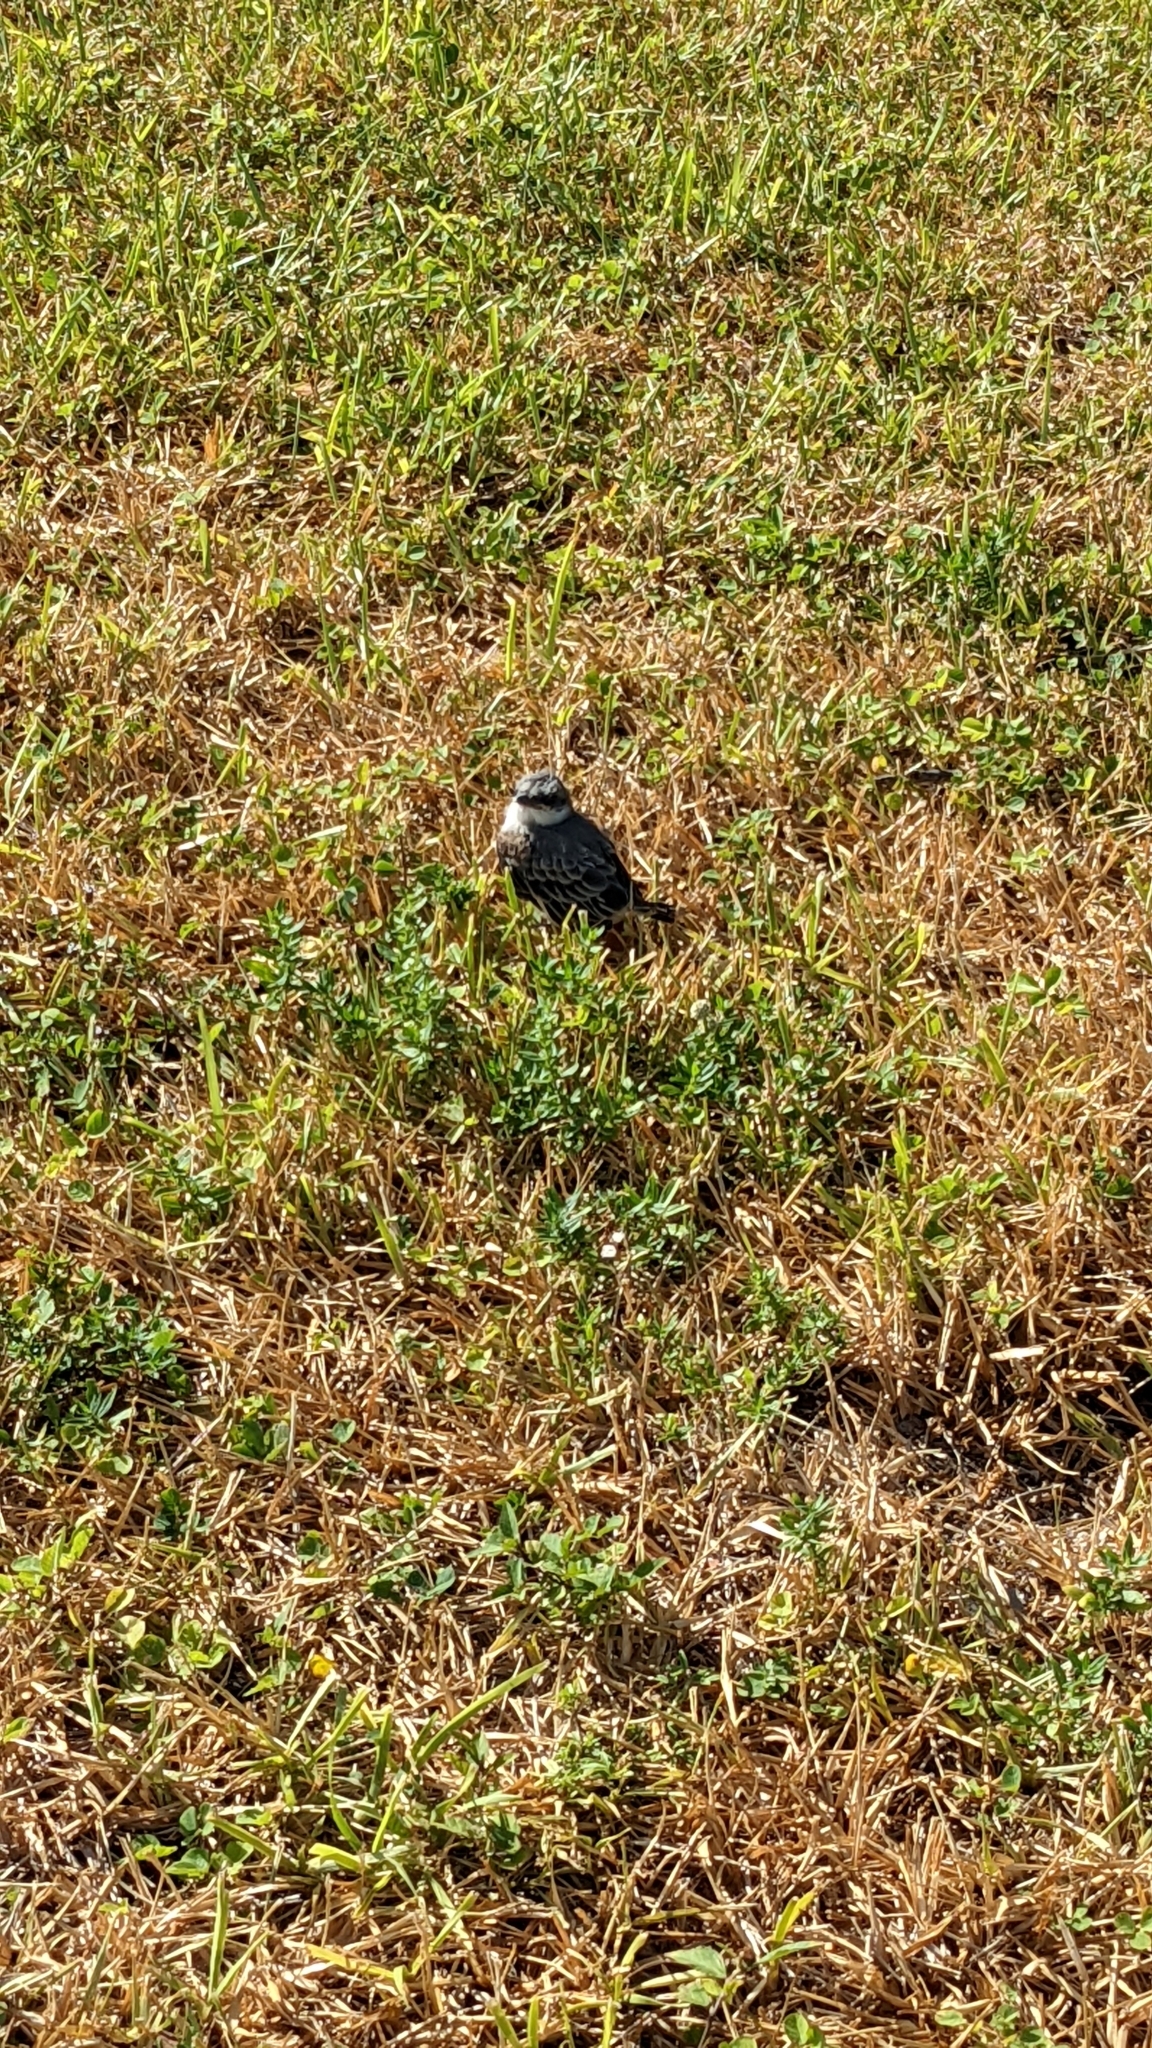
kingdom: Animalia
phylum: Chordata
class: Aves
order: Passeriformes
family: Tyrannidae
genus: Tyrannus
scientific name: Tyrannus dominicensis
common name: Gray kingbird
